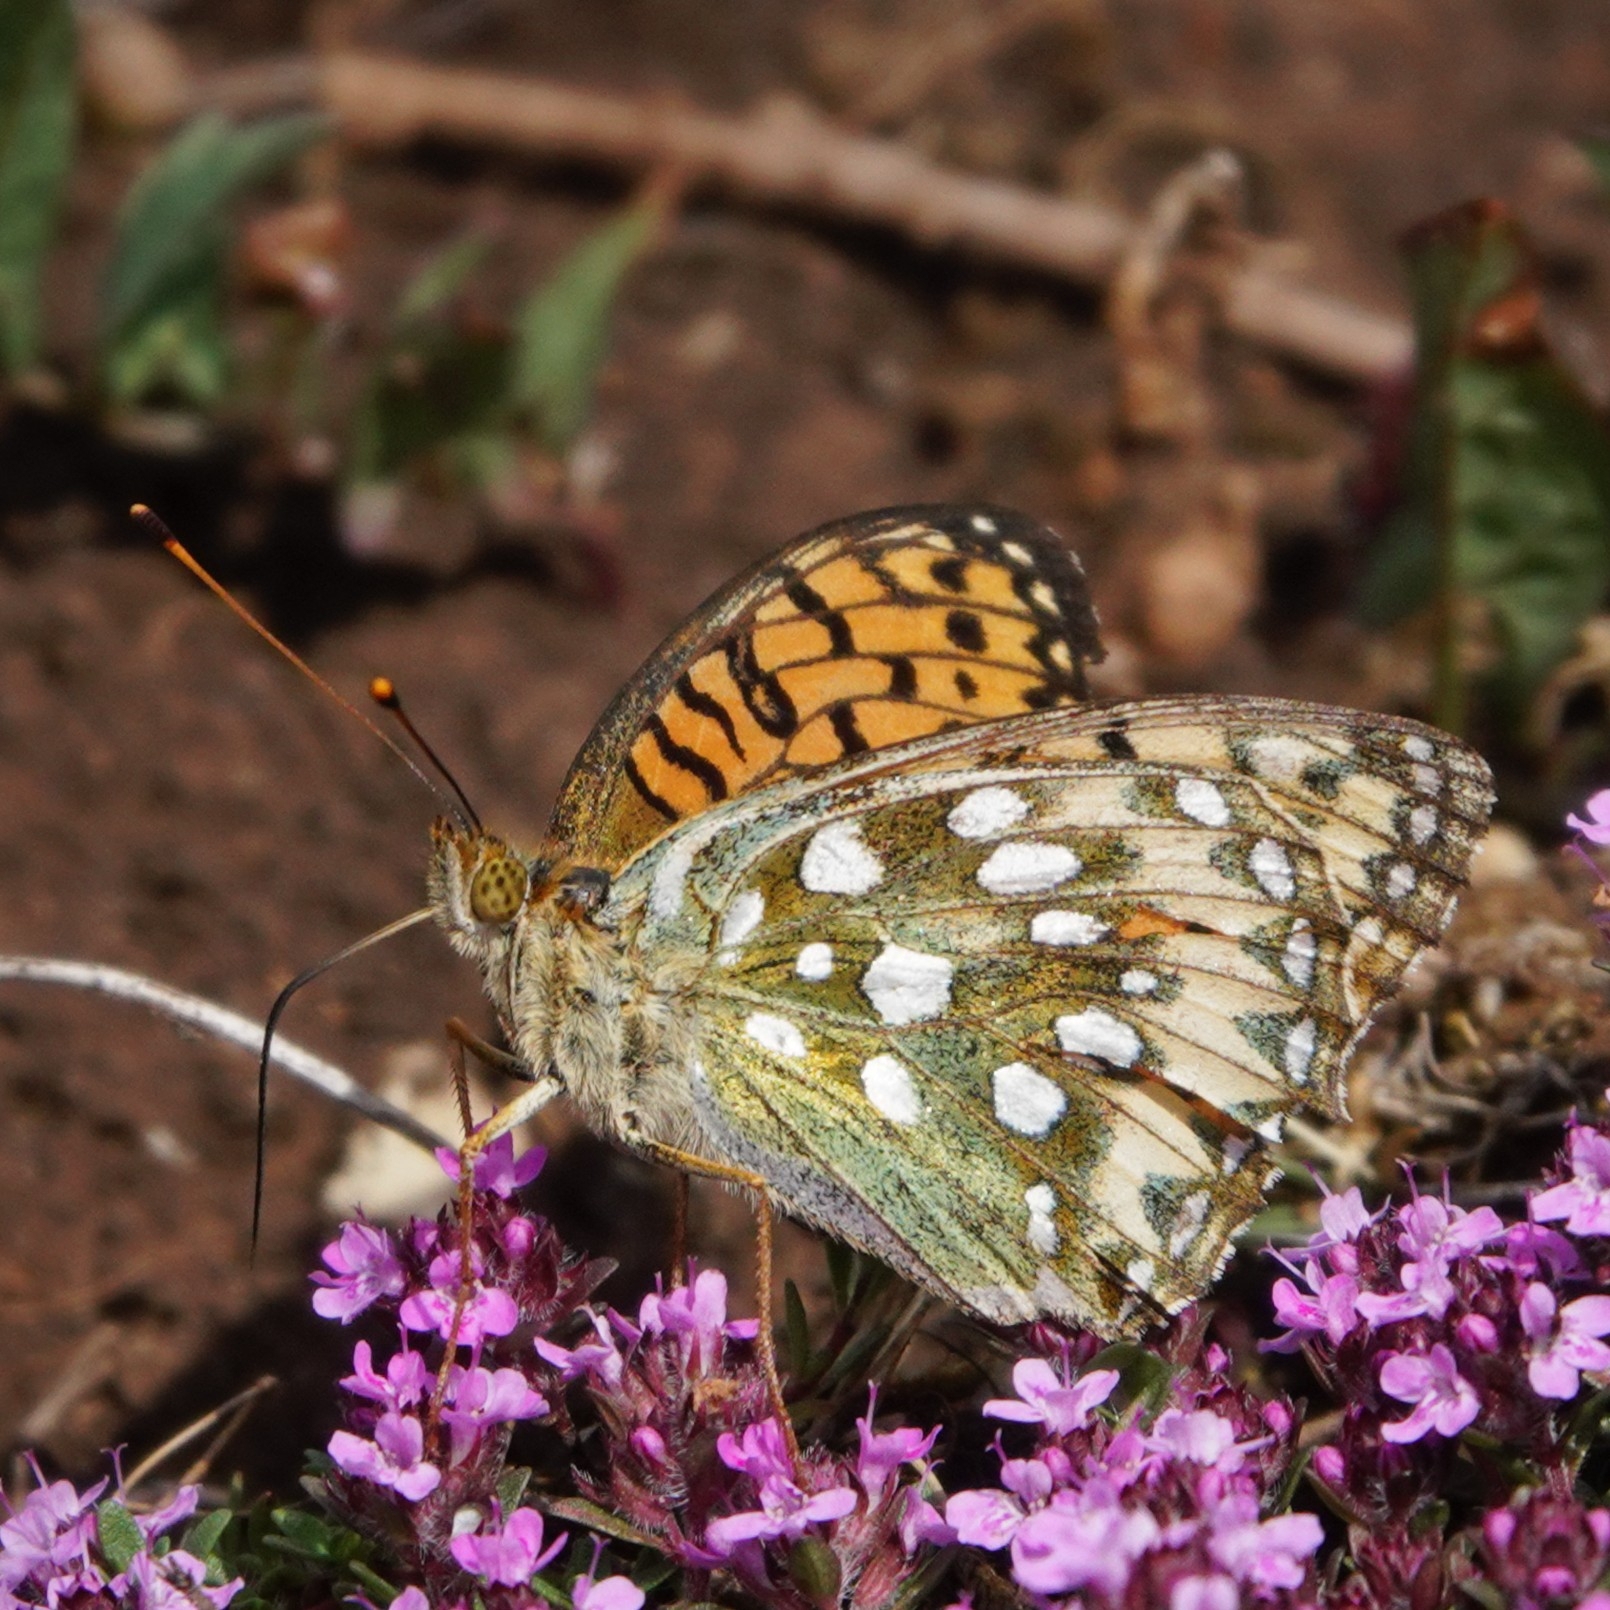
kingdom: Animalia
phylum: Arthropoda
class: Insecta
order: Lepidoptera
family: Nymphalidae
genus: Speyeria
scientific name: Speyeria aglaja
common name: Dark green fritillary
